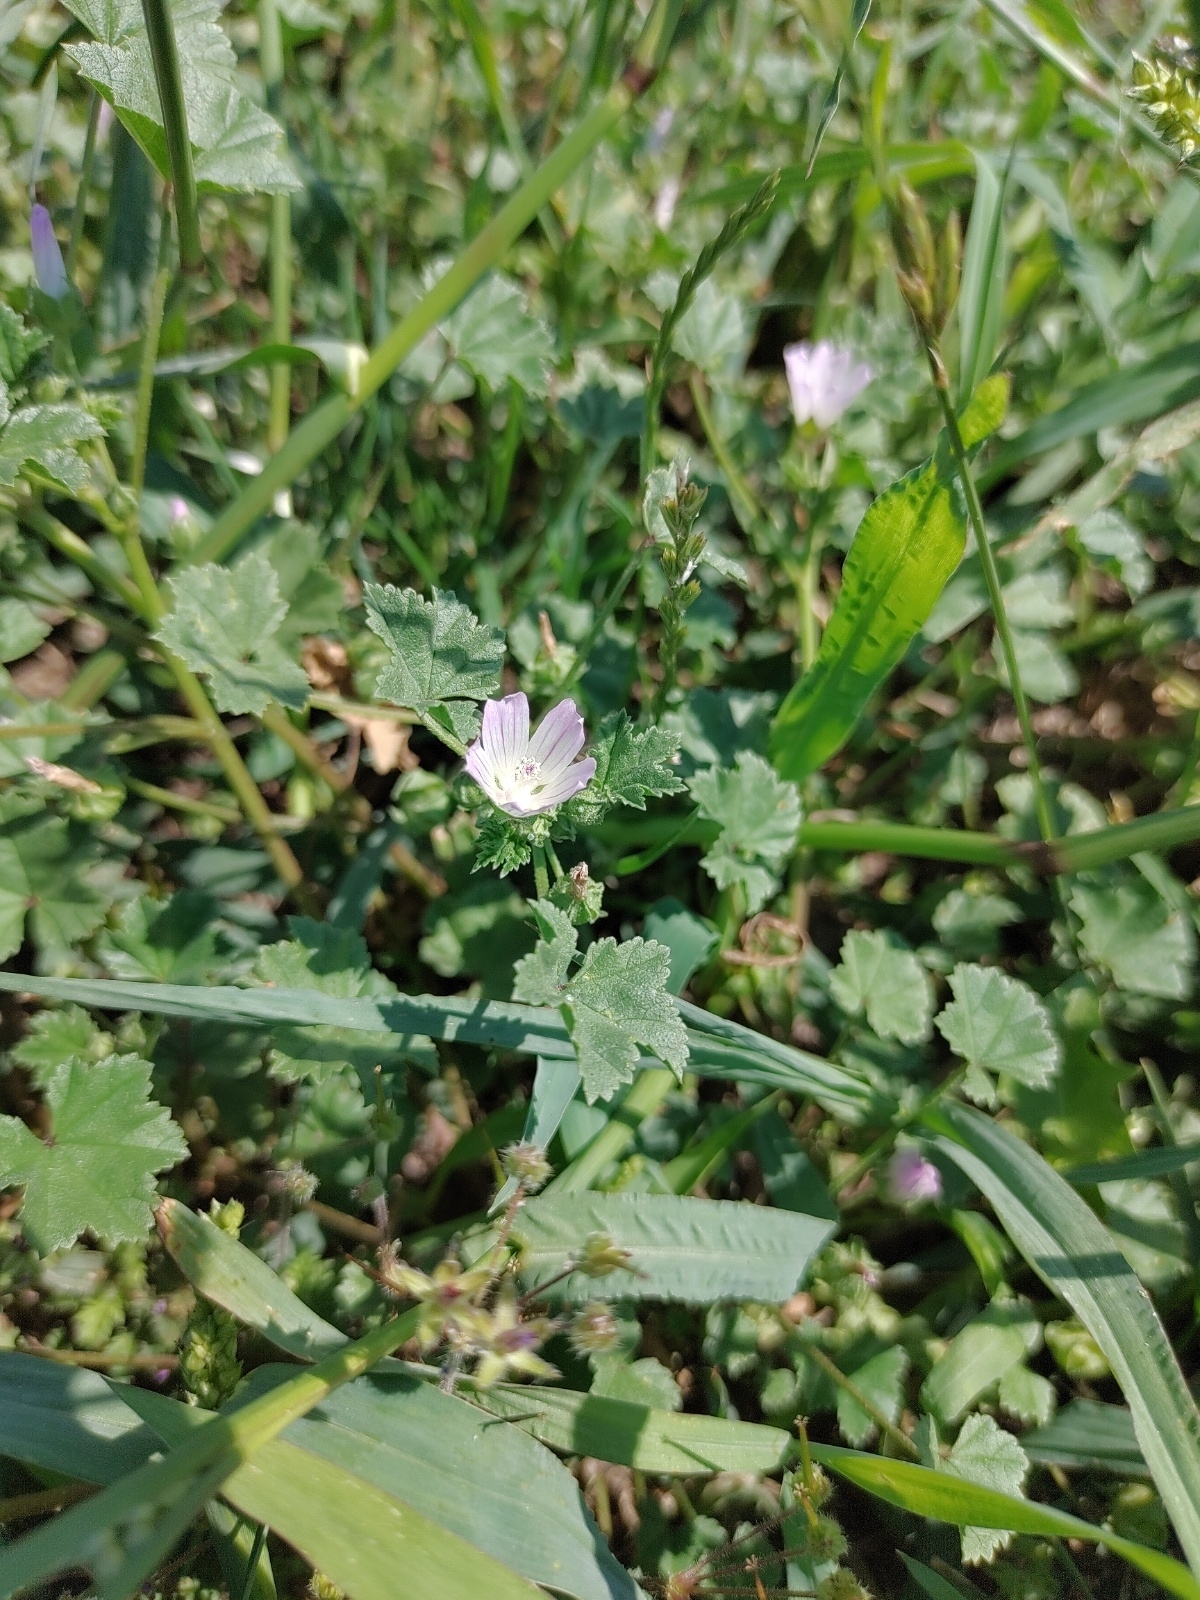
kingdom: Plantae
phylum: Tracheophyta
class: Magnoliopsida
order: Malvales
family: Malvaceae
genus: Malva
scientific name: Malva neglecta
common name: Common mallow
